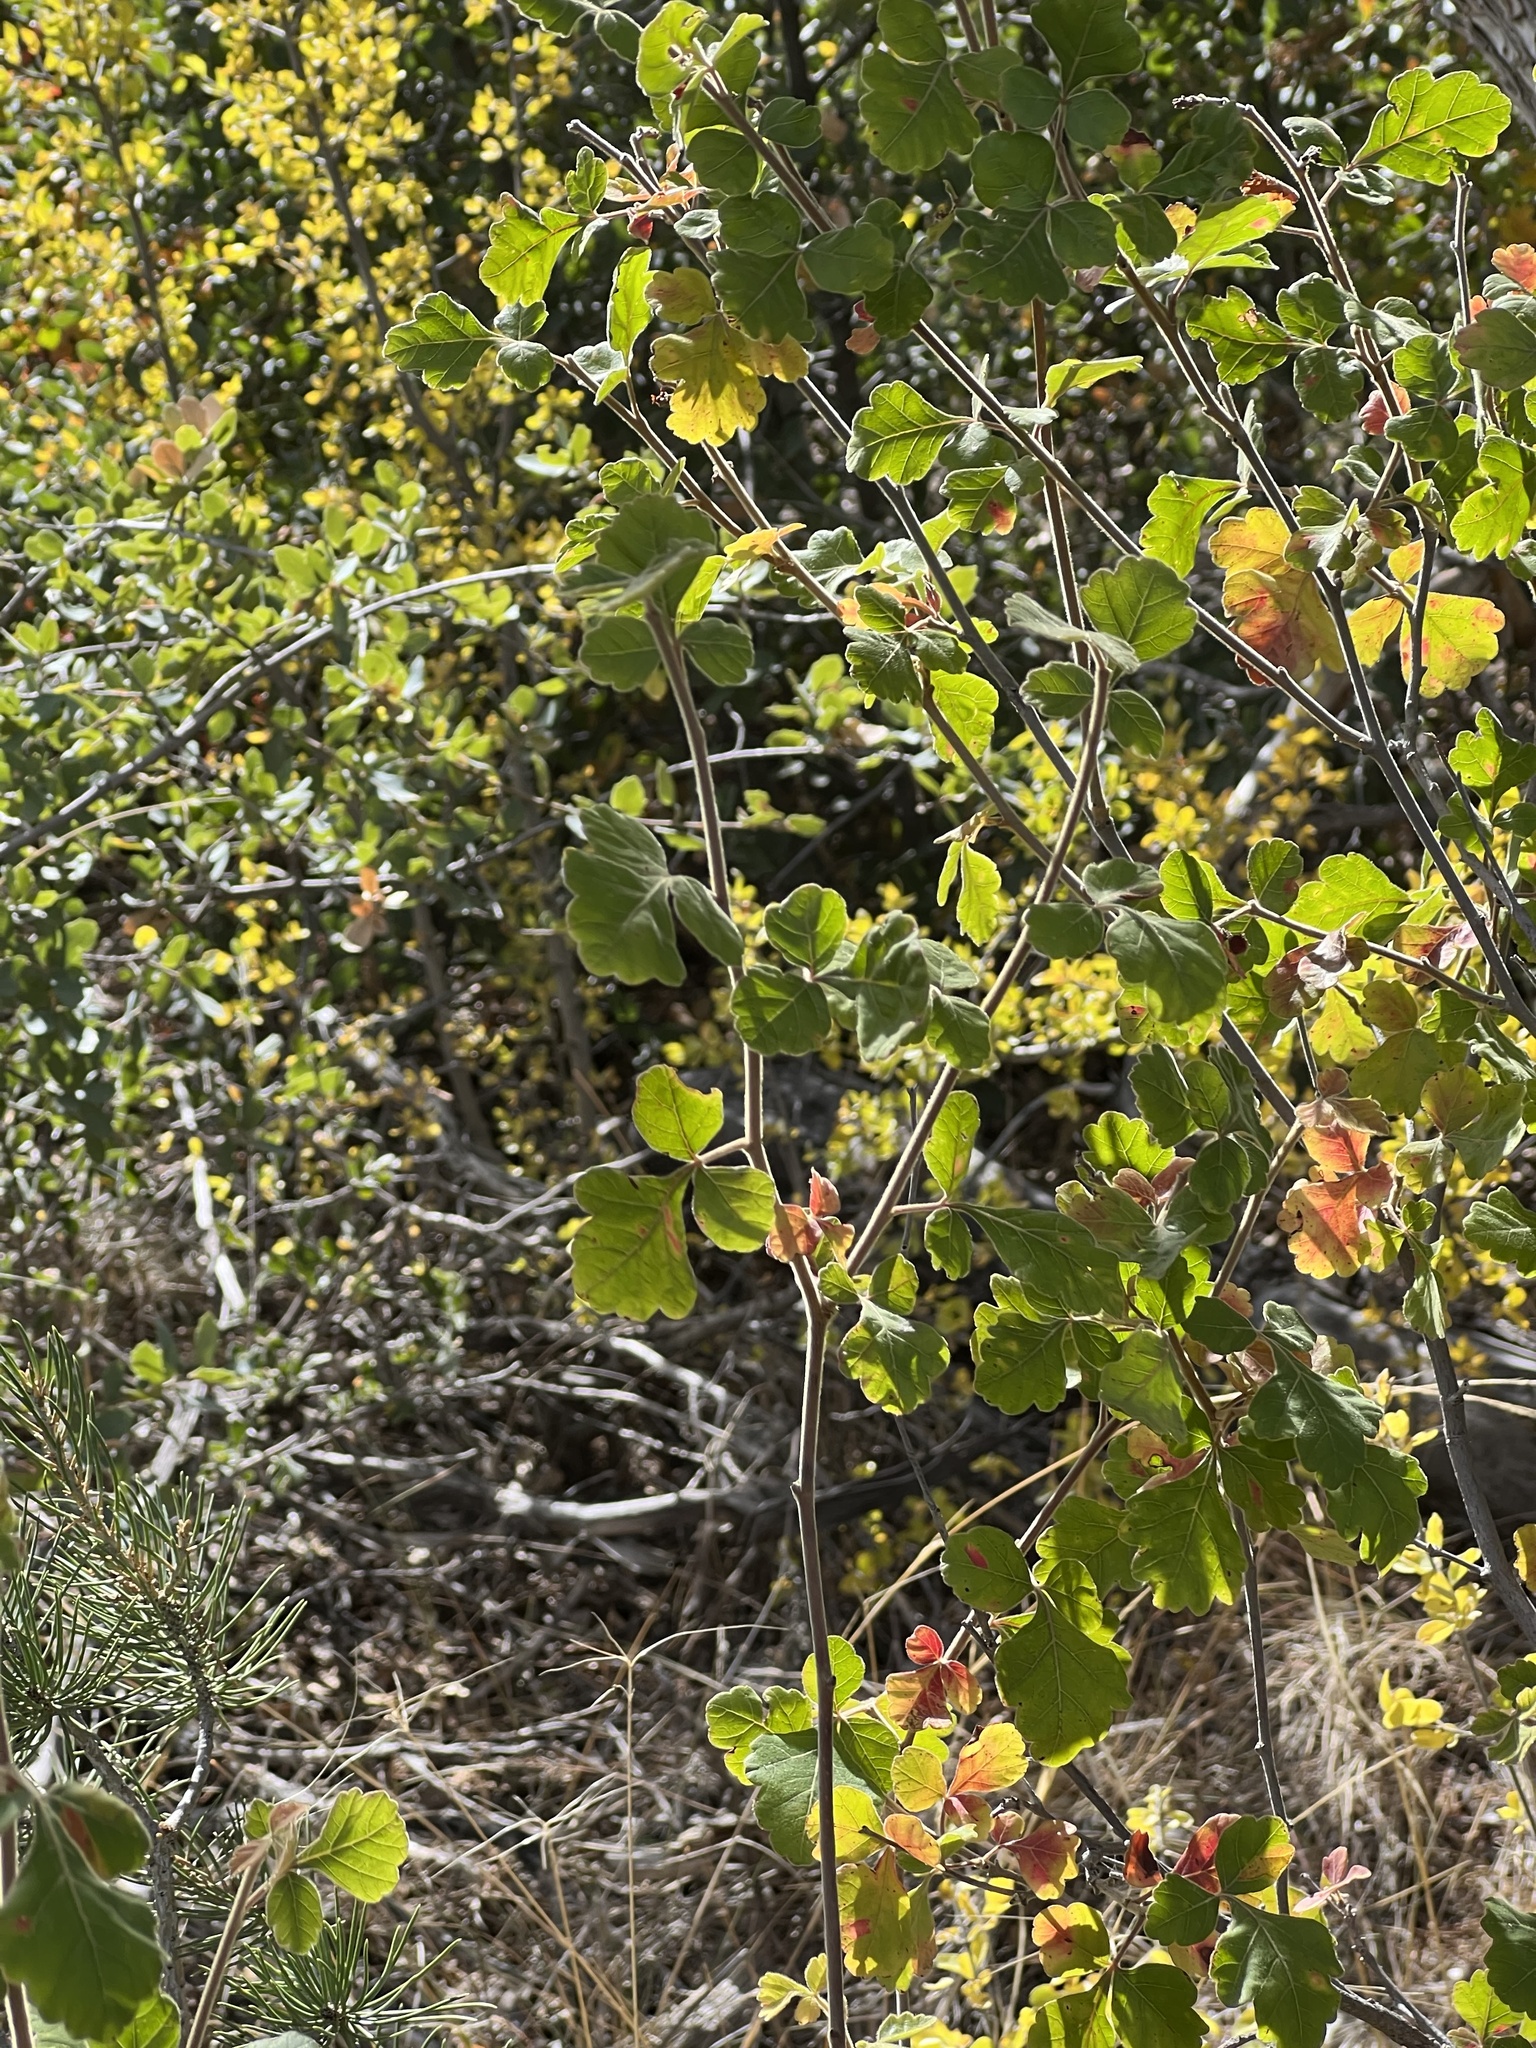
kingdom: Plantae
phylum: Tracheophyta
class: Magnoliopsida
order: Sapindales
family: Anacardiaceae
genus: Rhus
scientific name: Rhus trilobata
